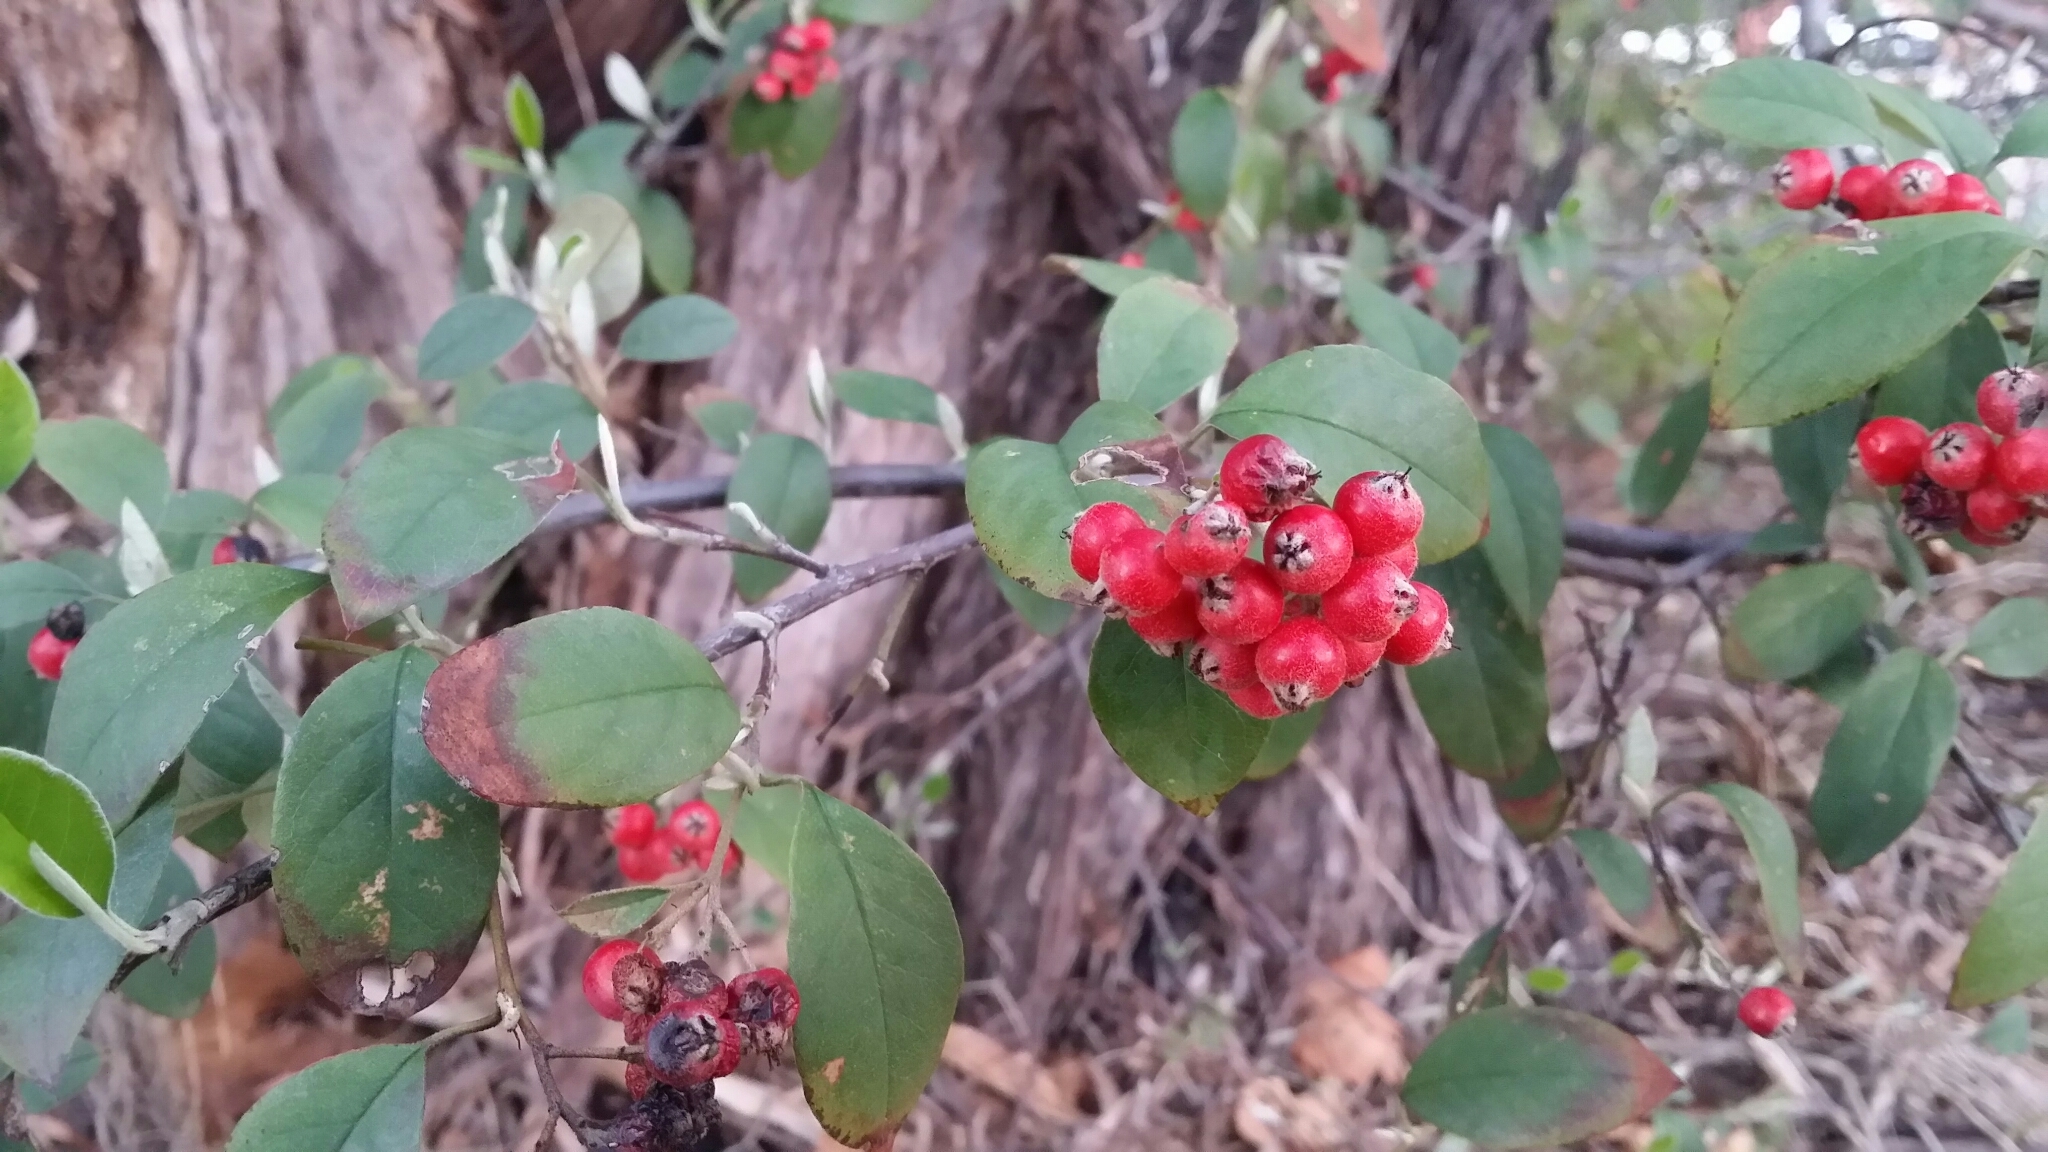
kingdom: Plantae
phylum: Tracheophyta
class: Magnoliopsida
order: Rosales
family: Rosaceae
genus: Cotoneaster
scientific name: Cotoneaster glaucophyllus
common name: Glaucous cotoneaster
